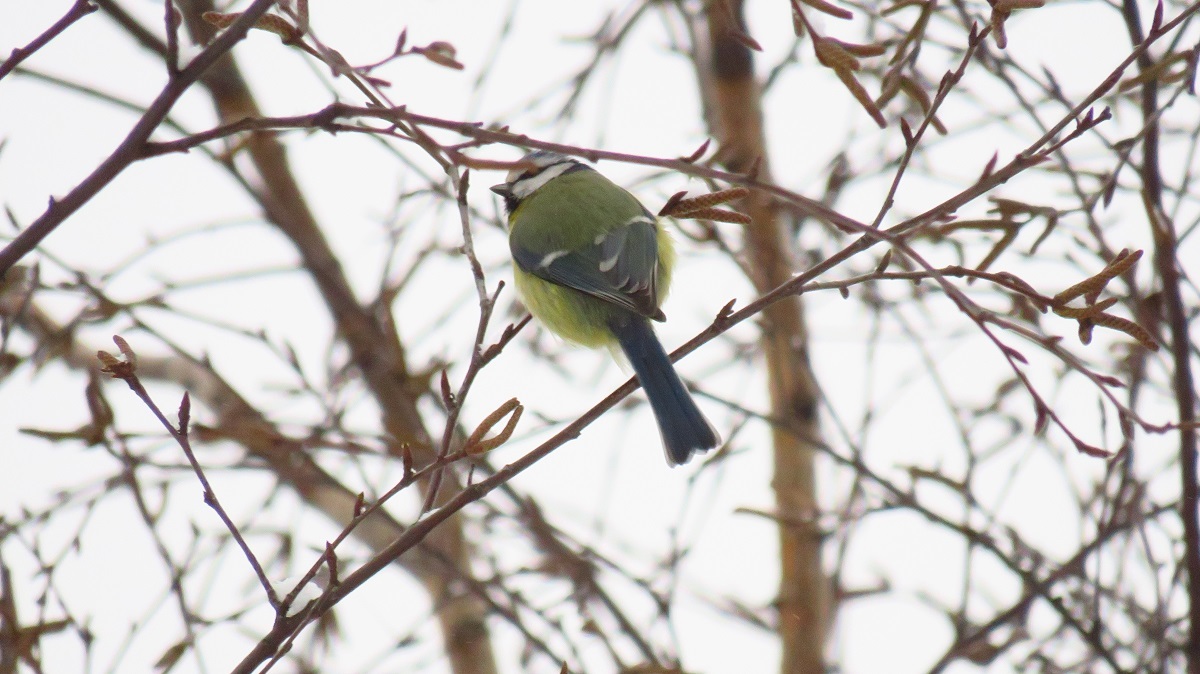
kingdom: Animalia
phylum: Chordata
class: Aves
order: Passeriformes
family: Paridae
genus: Cyanistes
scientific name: Cyanistes caeruleus
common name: Eurasian blue tit
